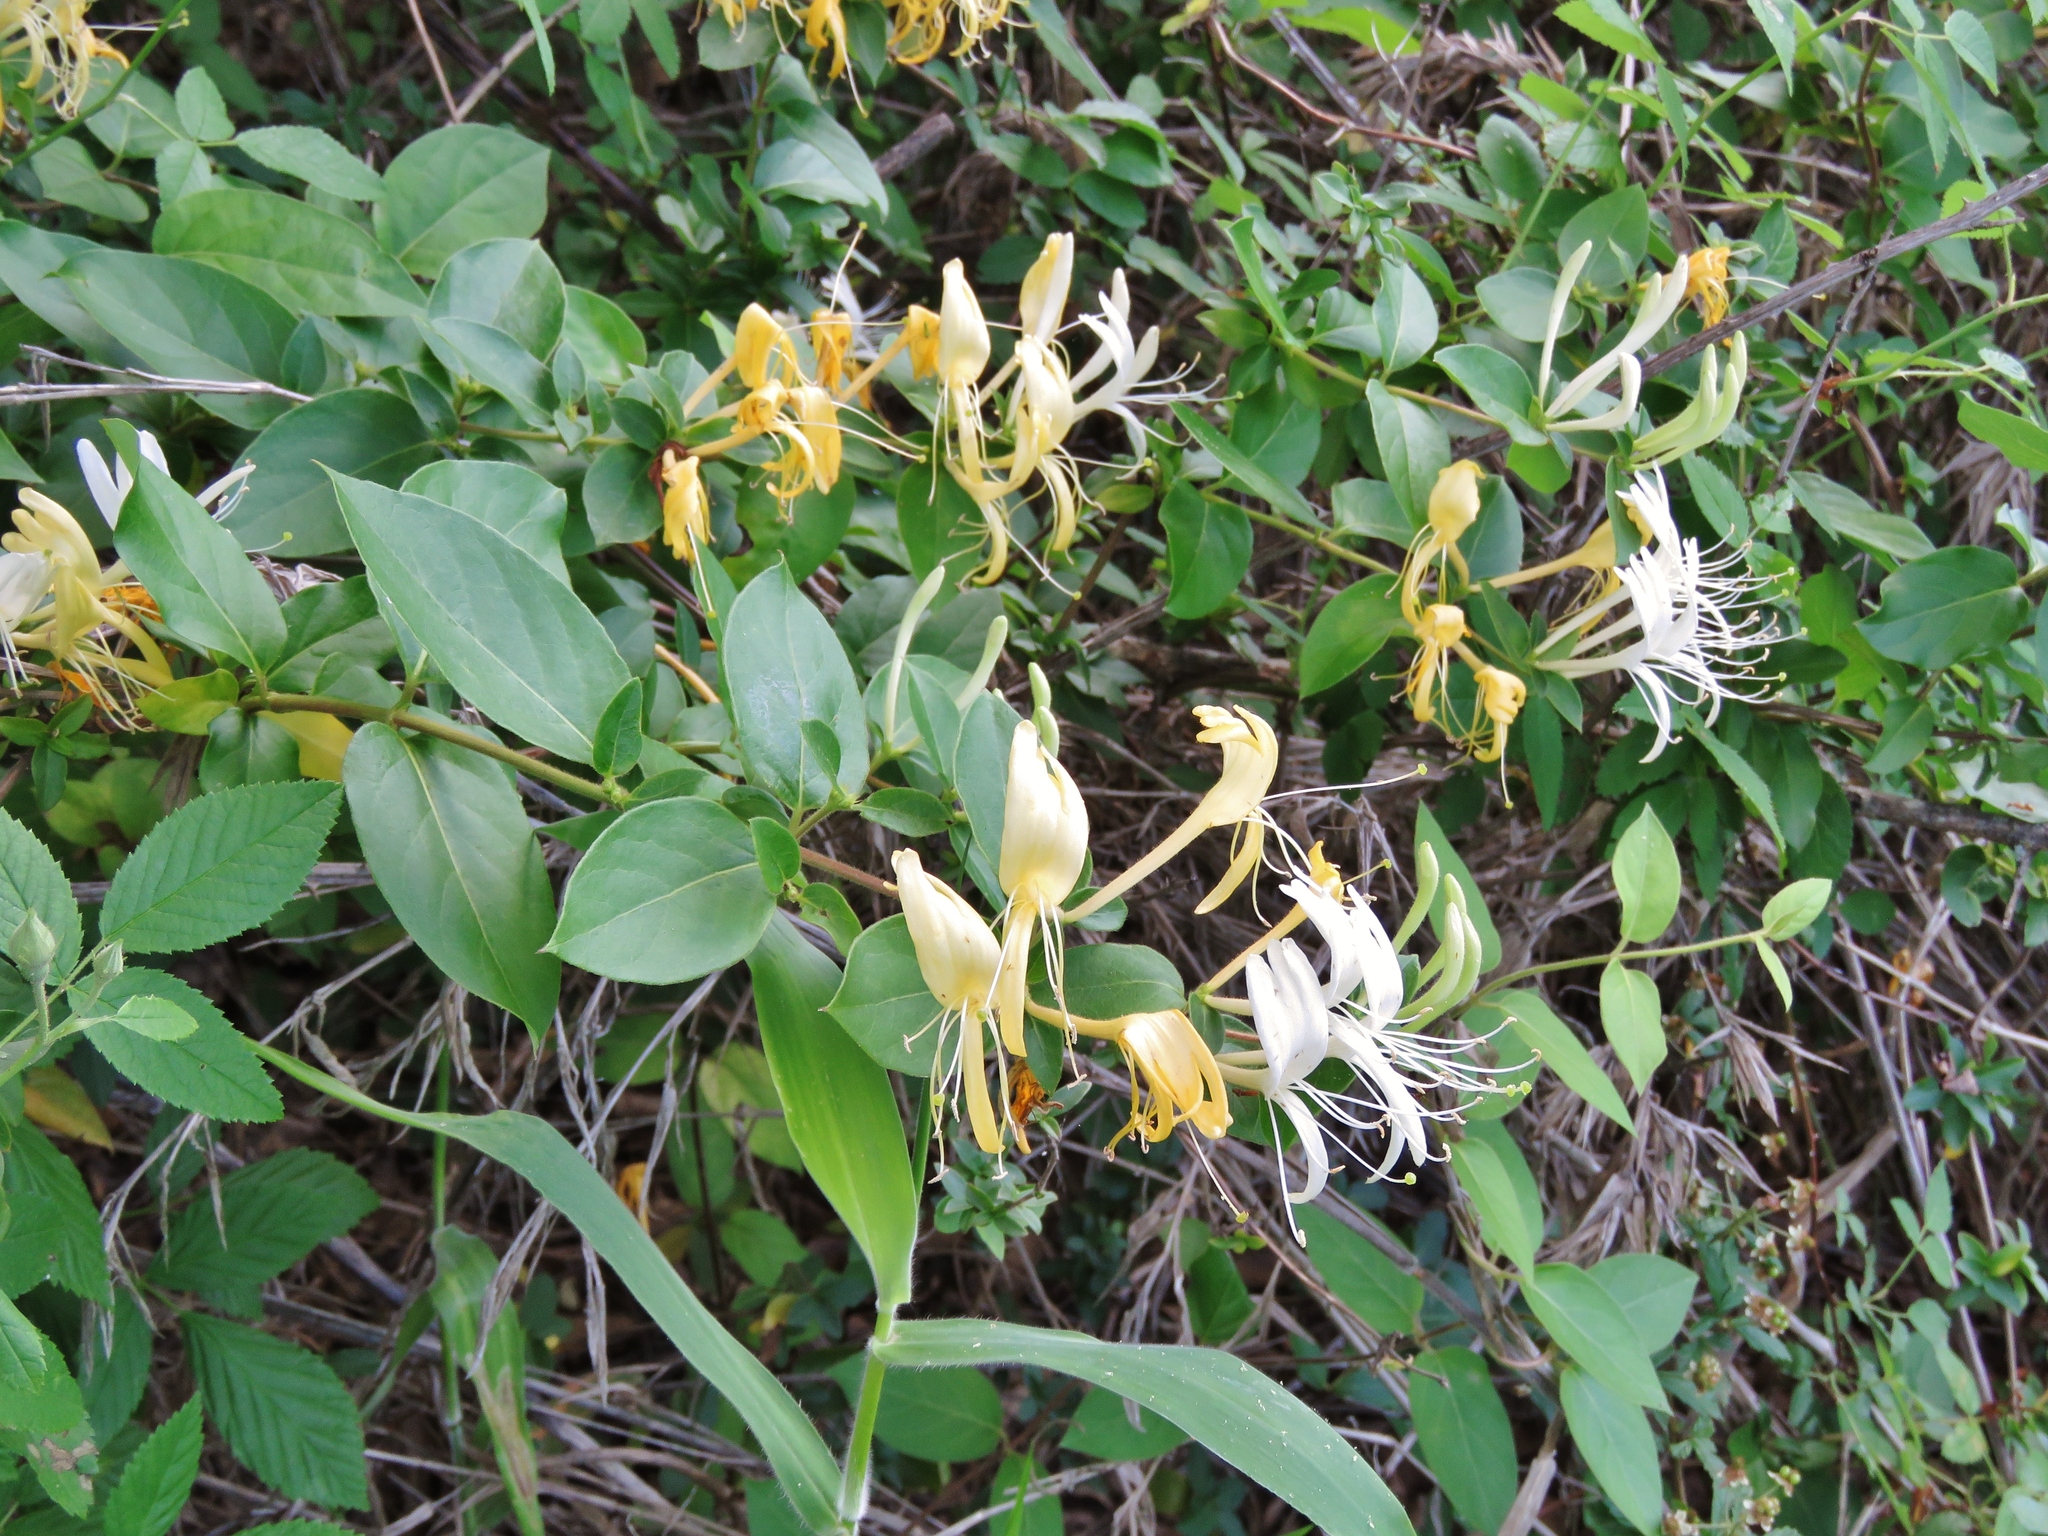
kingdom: Plantae
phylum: Tracheophyta
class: Magnoliopsida
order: Dipsacales
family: Caprifoliaceae
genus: Lonicera
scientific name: Lonicera japonica
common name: Japanese honeysuckle
